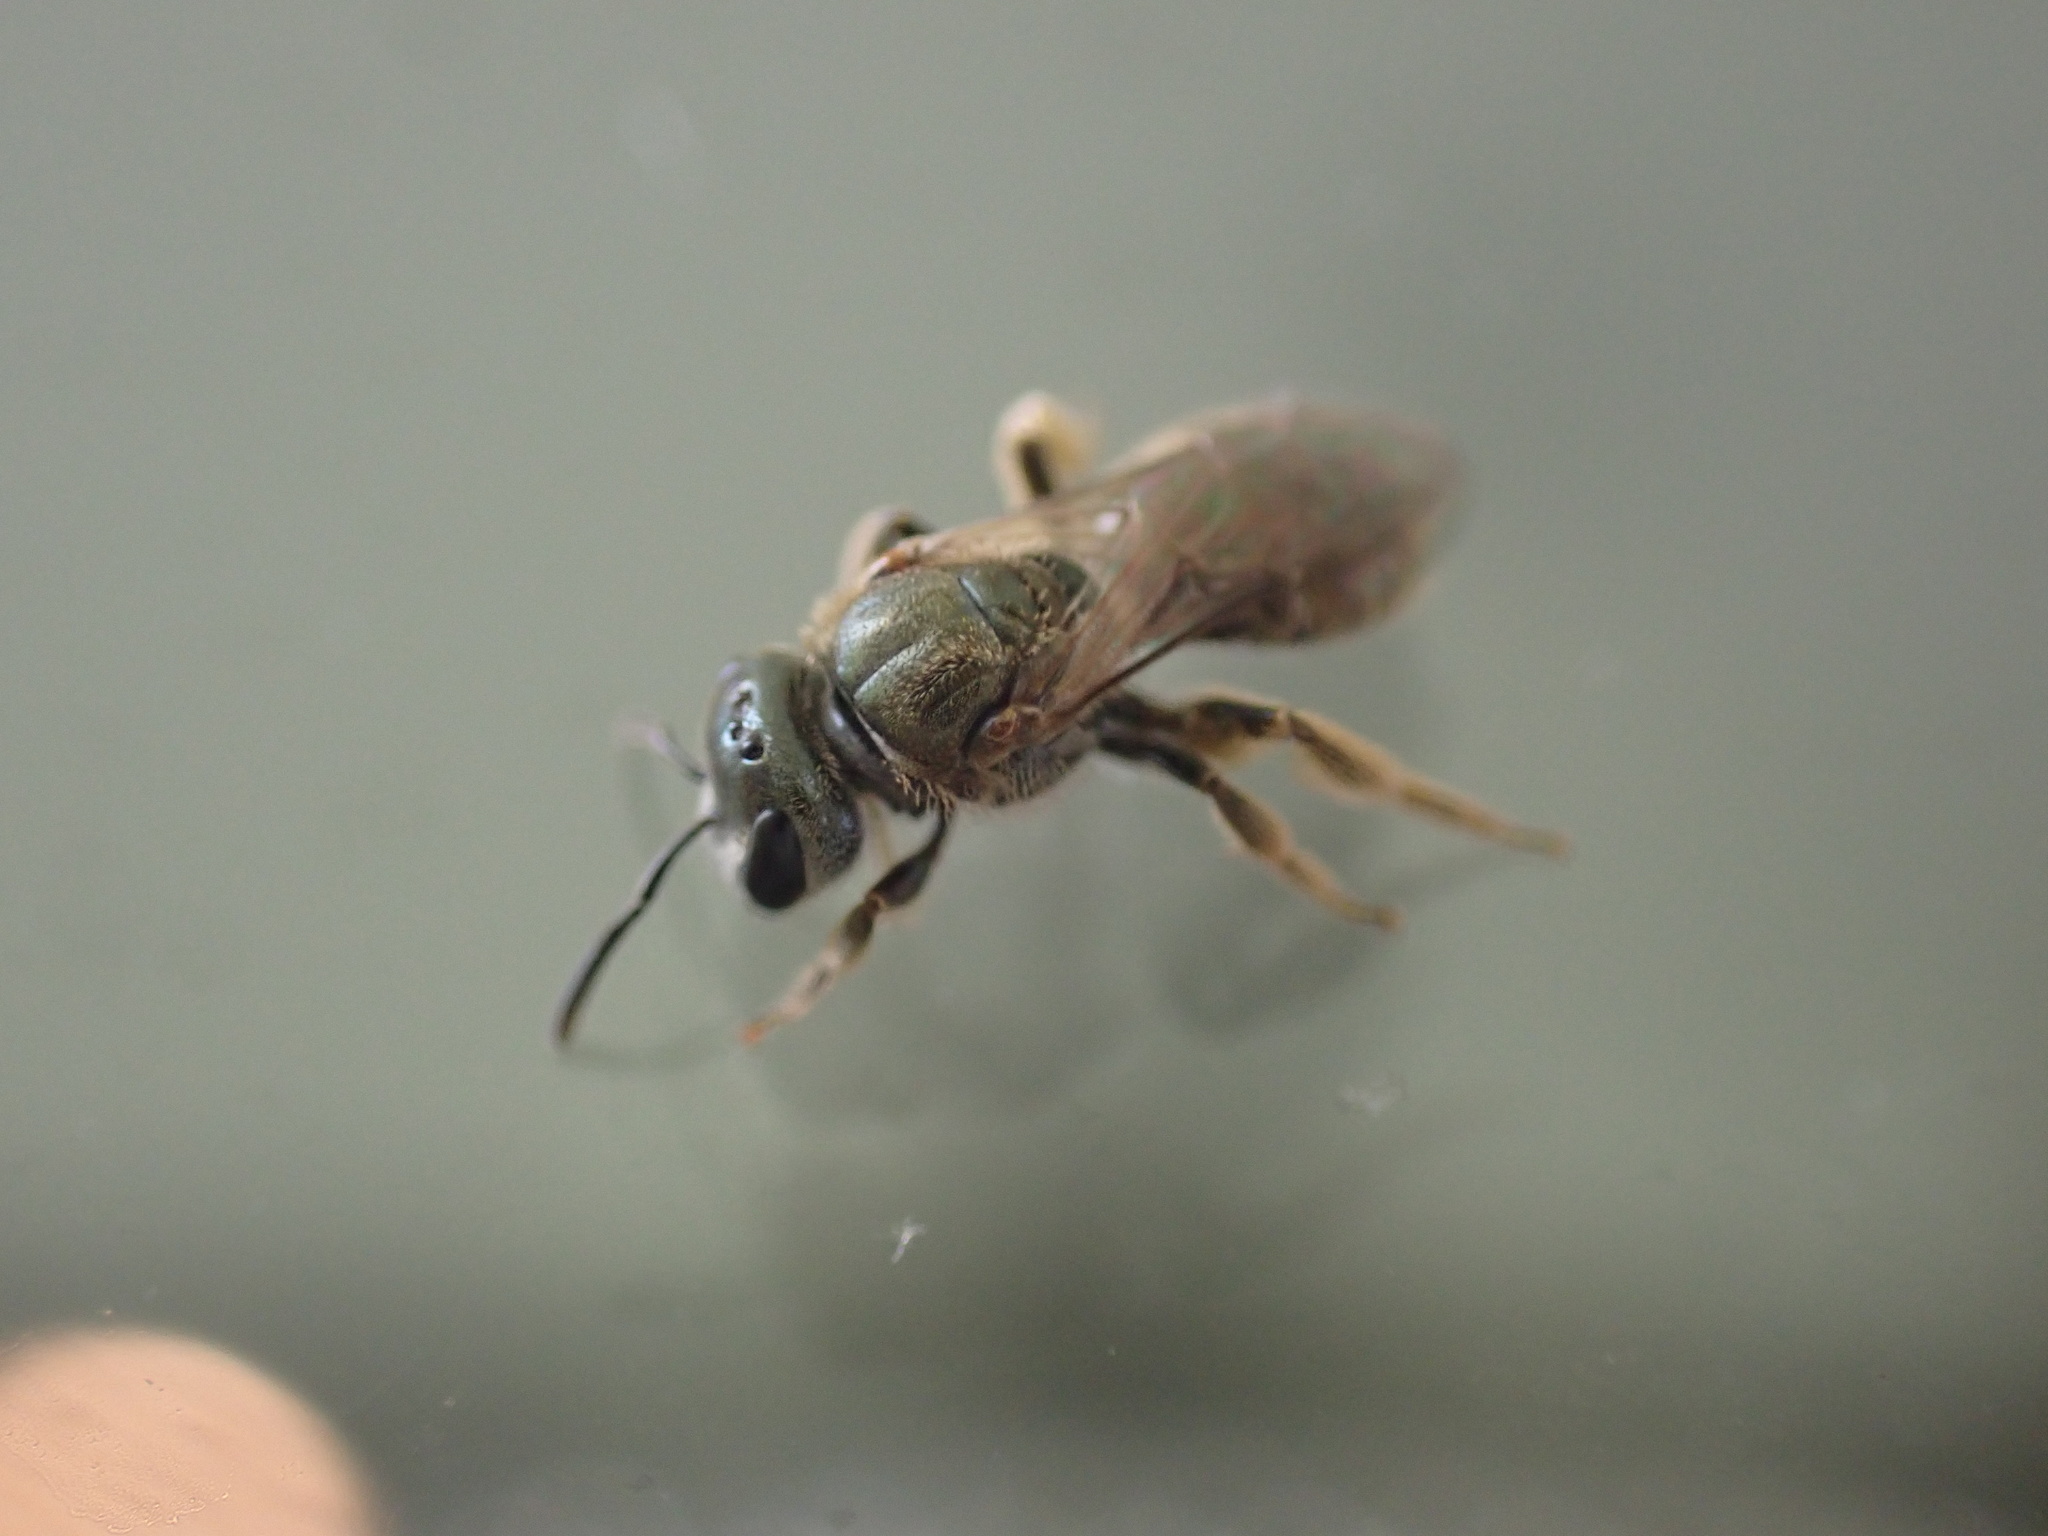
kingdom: Animalia
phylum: Arthropoda
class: Insecta
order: Hymenoptera
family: Halictidae
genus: Dialictus
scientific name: Dialictus
